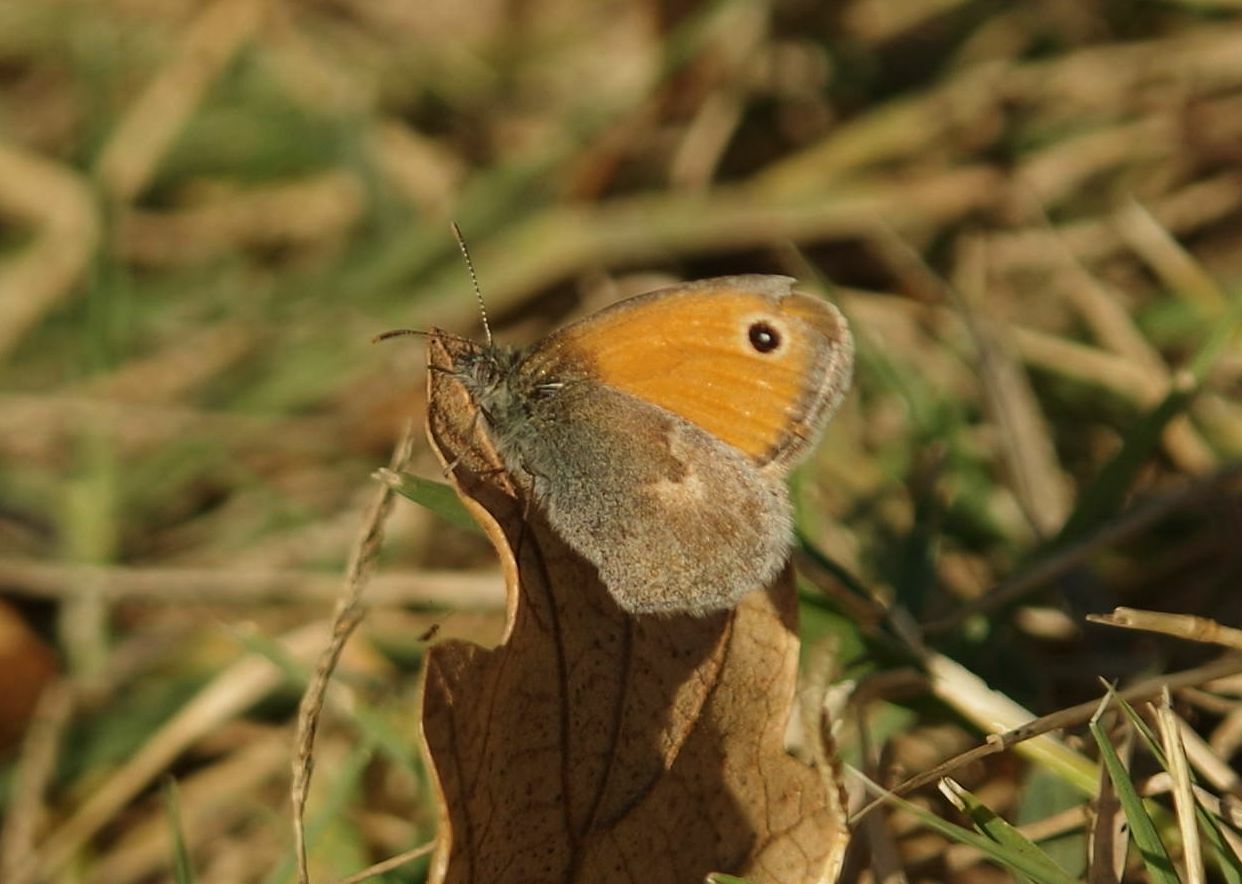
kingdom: Animalia
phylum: Arthropoda
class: Insecta
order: Lepidoptera
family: Nymphalidae
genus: Coenonympha
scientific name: Coenonympha pamphilus
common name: Small heath
